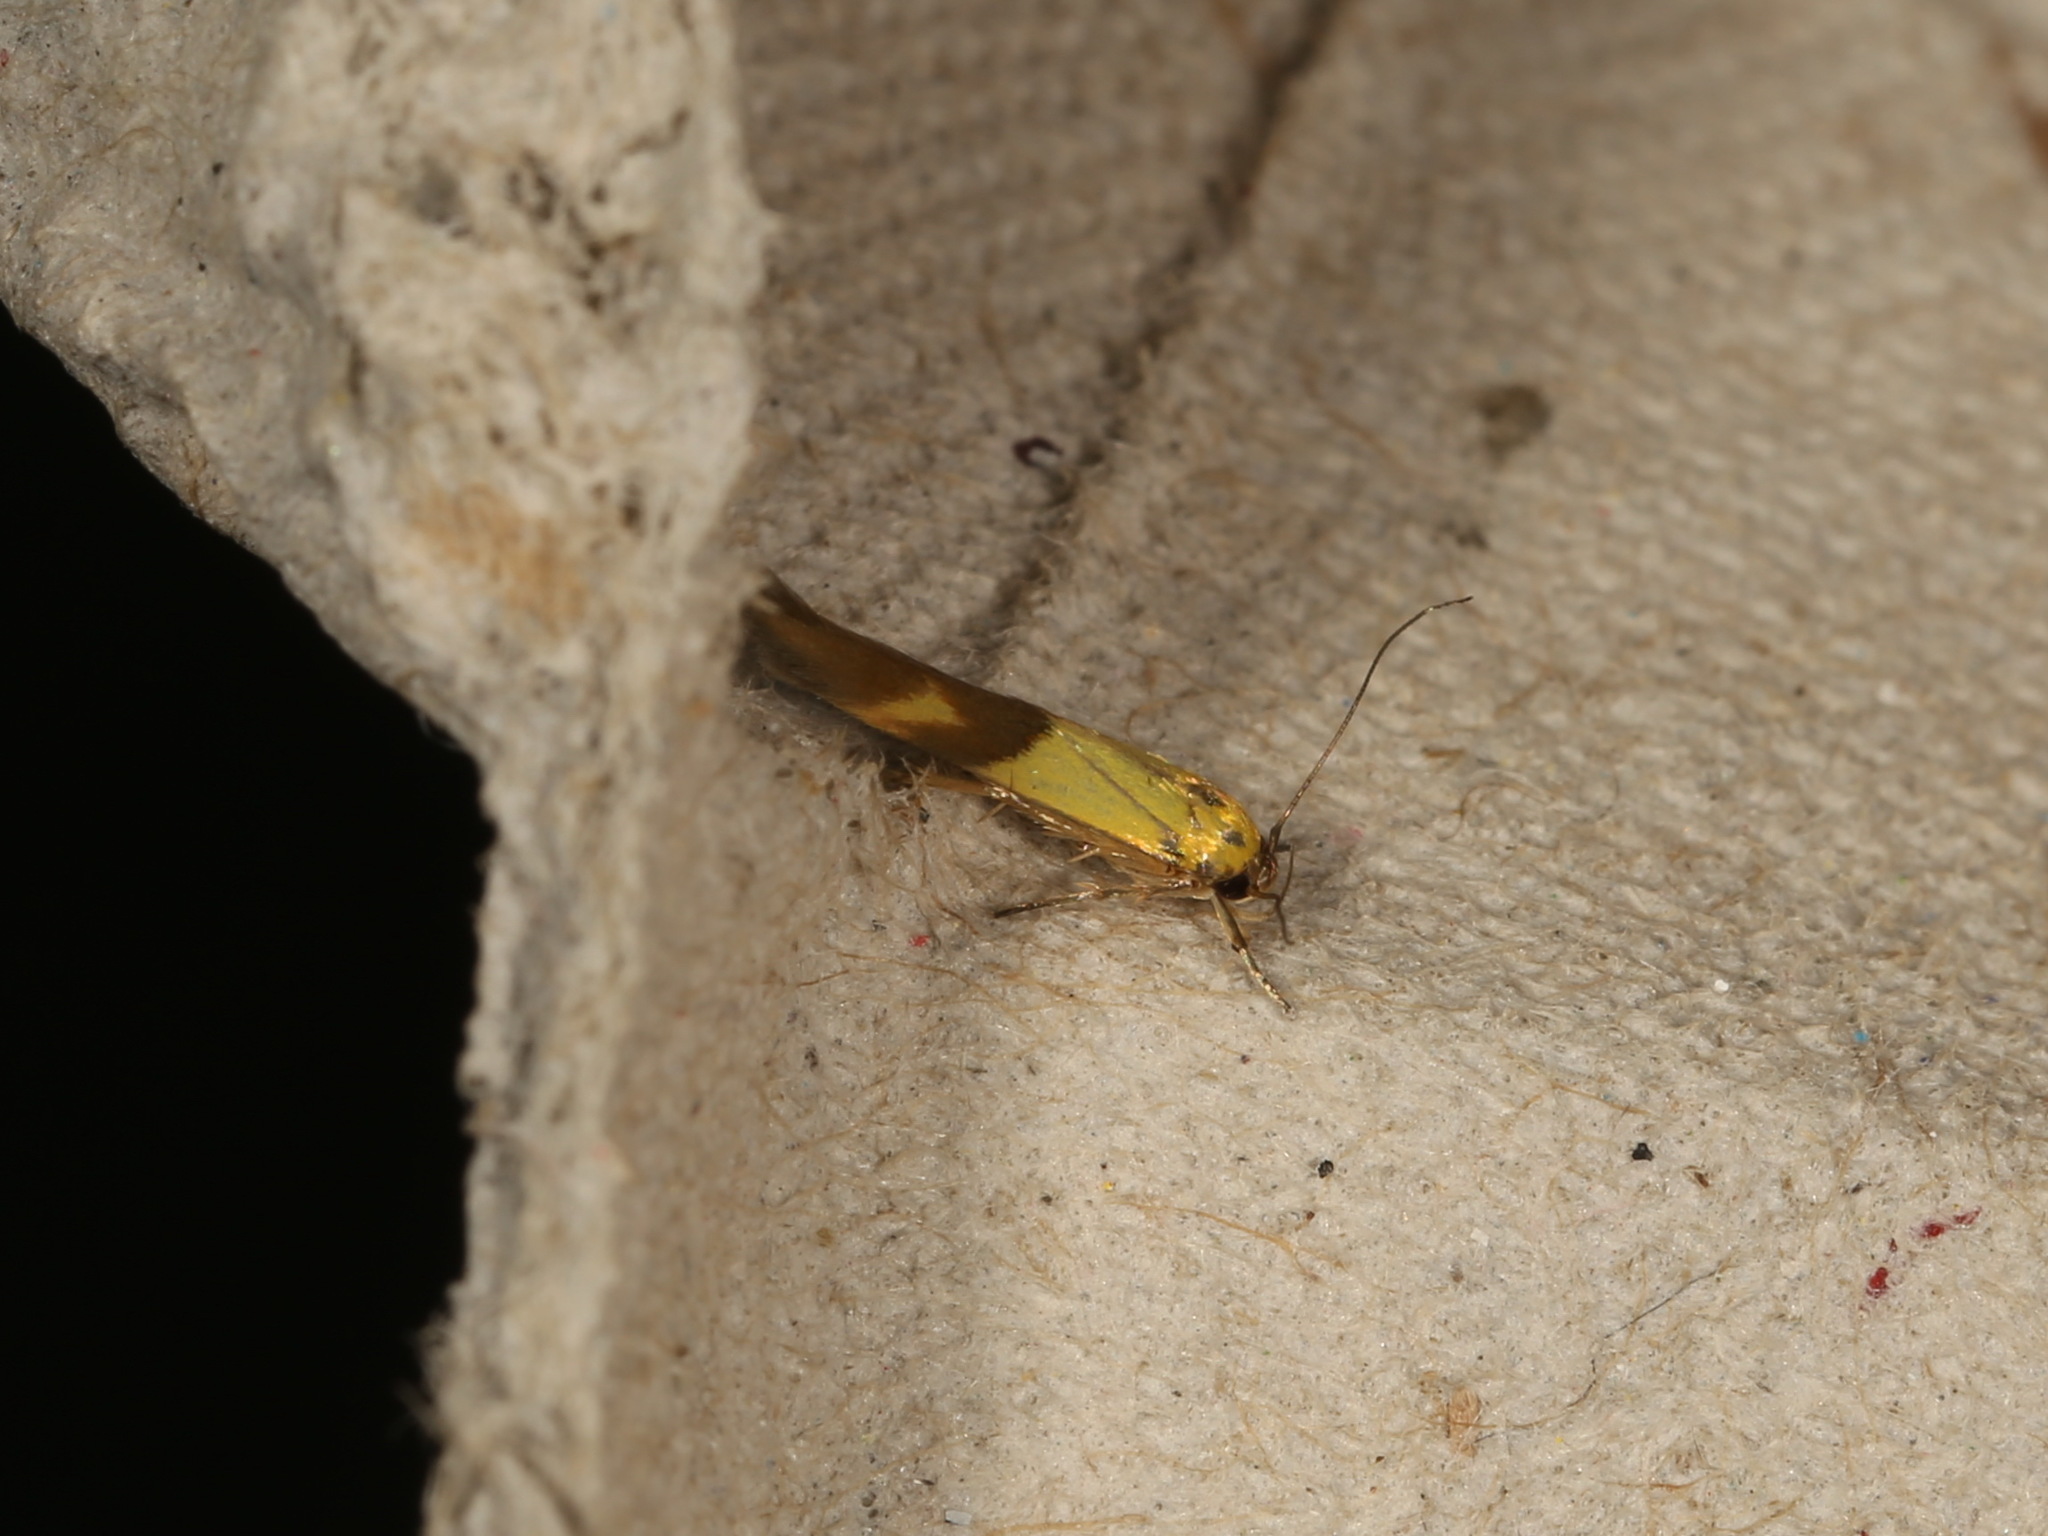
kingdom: Animalia
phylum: Arthropoda
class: Insecta
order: Lepidoptera
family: Stathmopodidae
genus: Stathmopoda
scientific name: Stathmopoda auriferella
